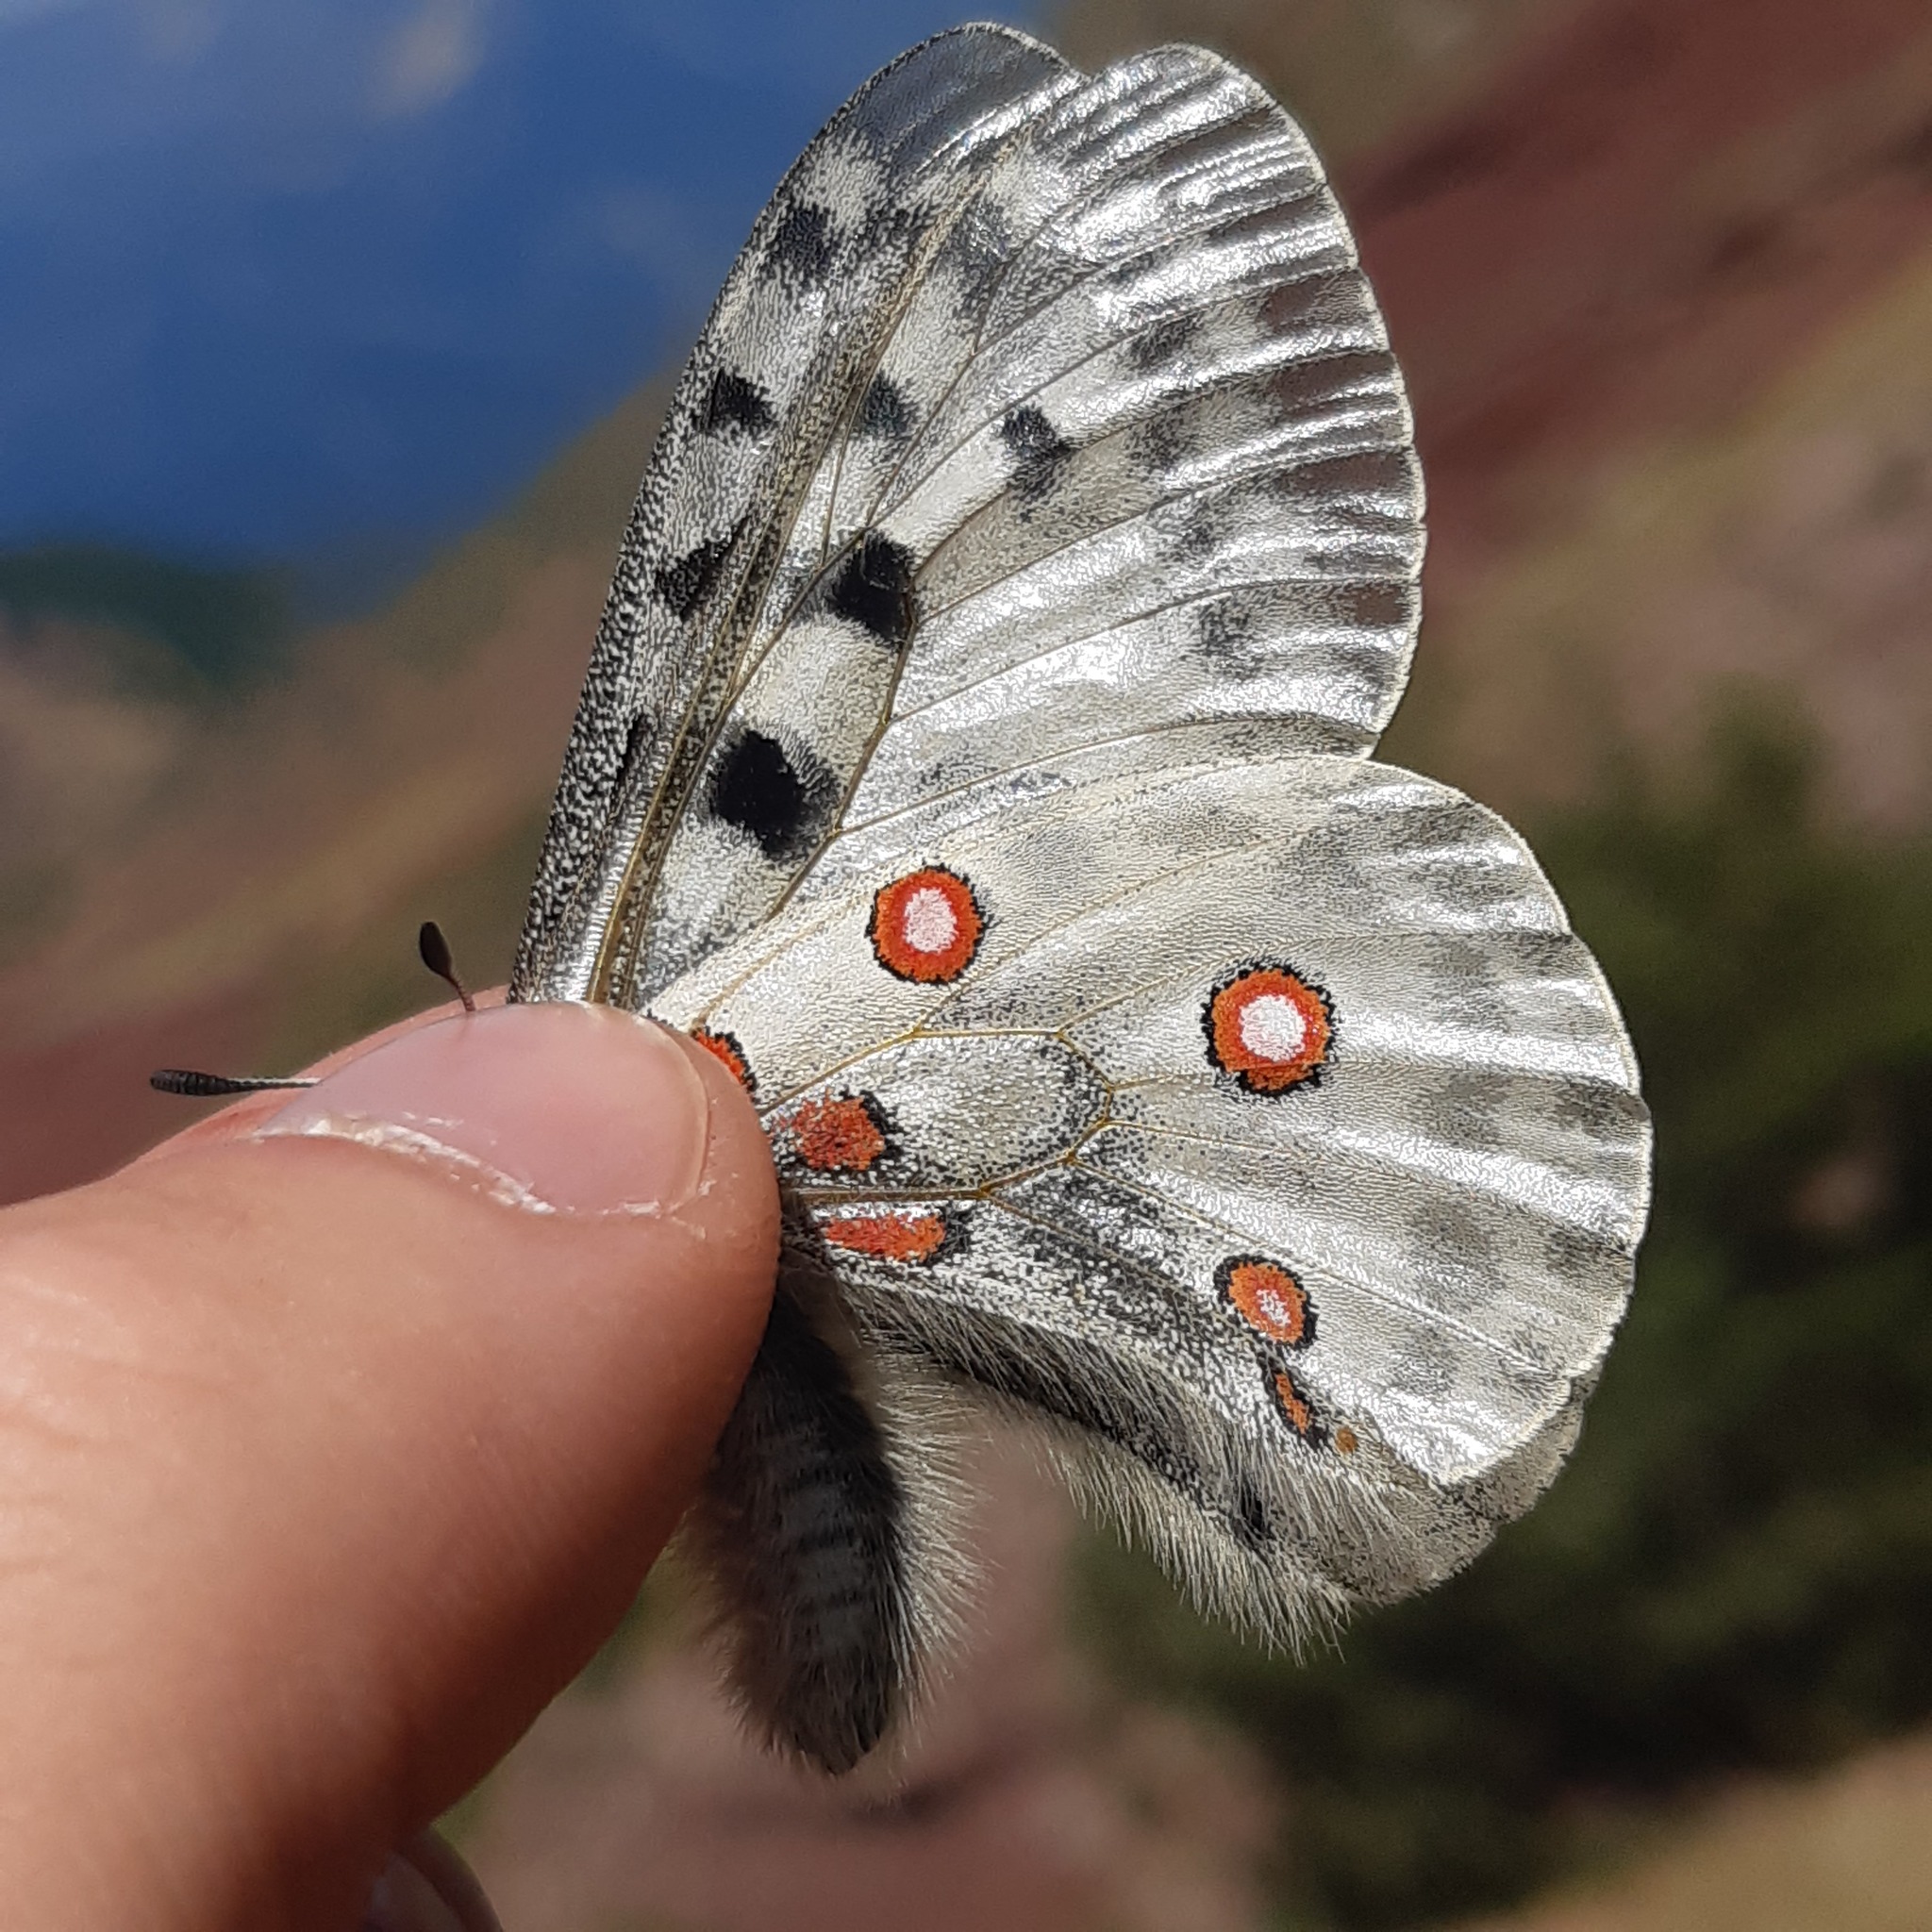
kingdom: Animalia
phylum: Arthropoda
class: Insecta
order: Lepidoptera
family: Papilionidae
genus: Parnassius
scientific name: Parnassius apollo
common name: Apollo
